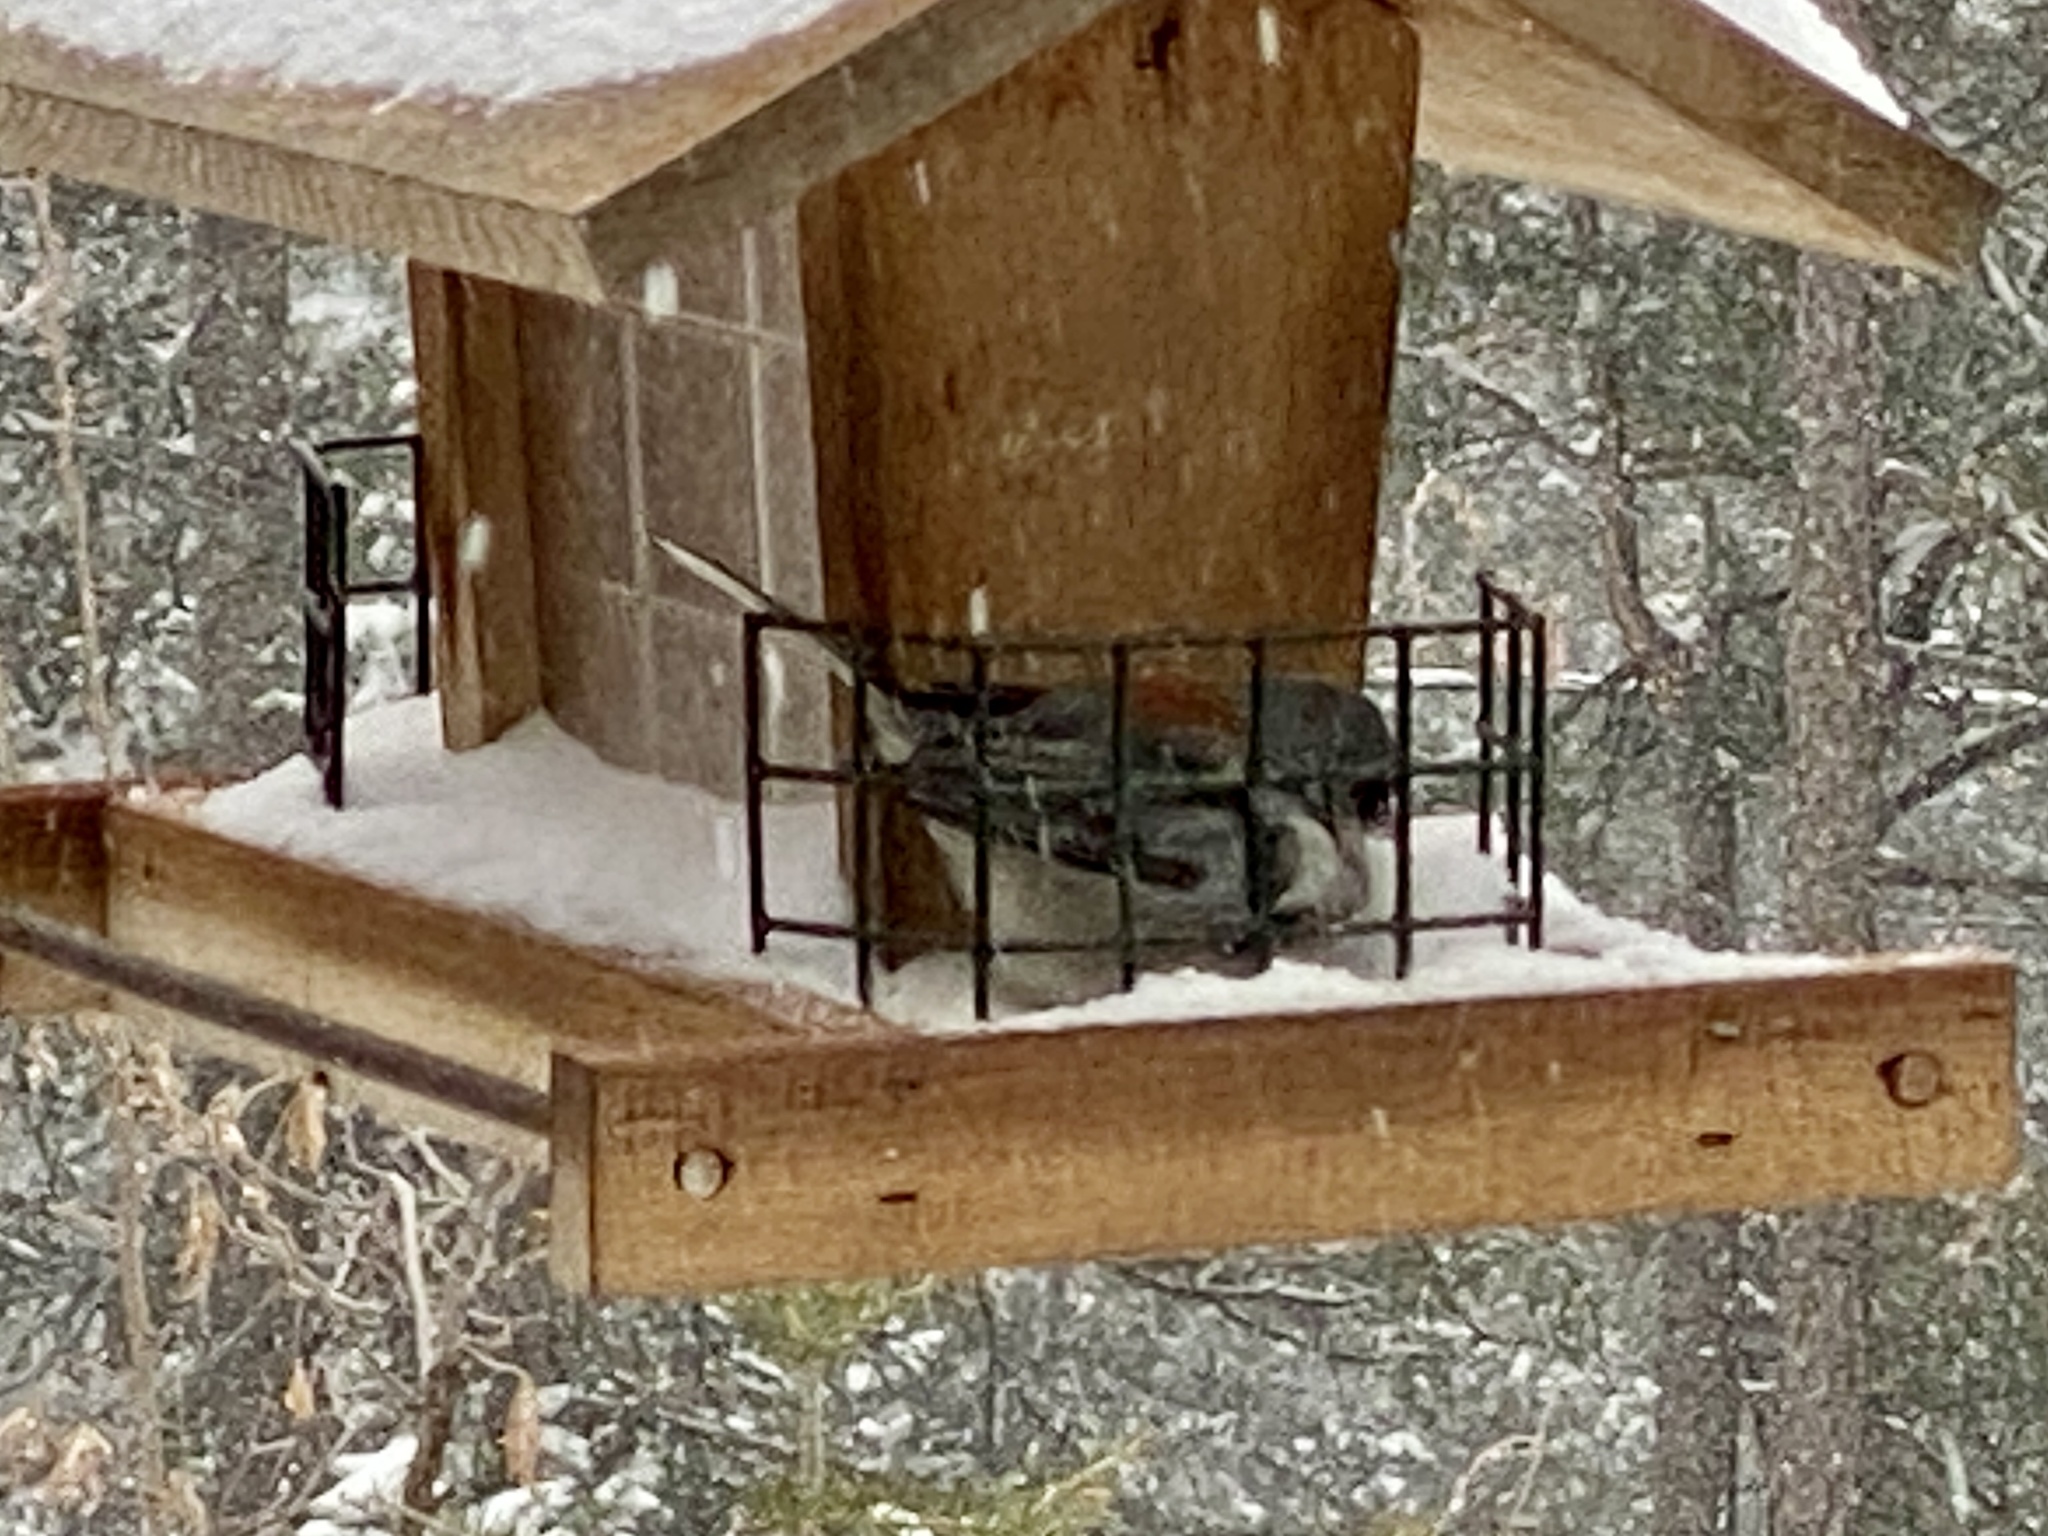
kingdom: Animalia
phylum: Chordata
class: Aves
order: Passeriformes
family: Passerellidae
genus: Junco
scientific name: Junco hyemalis
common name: Dark-eyed junco
